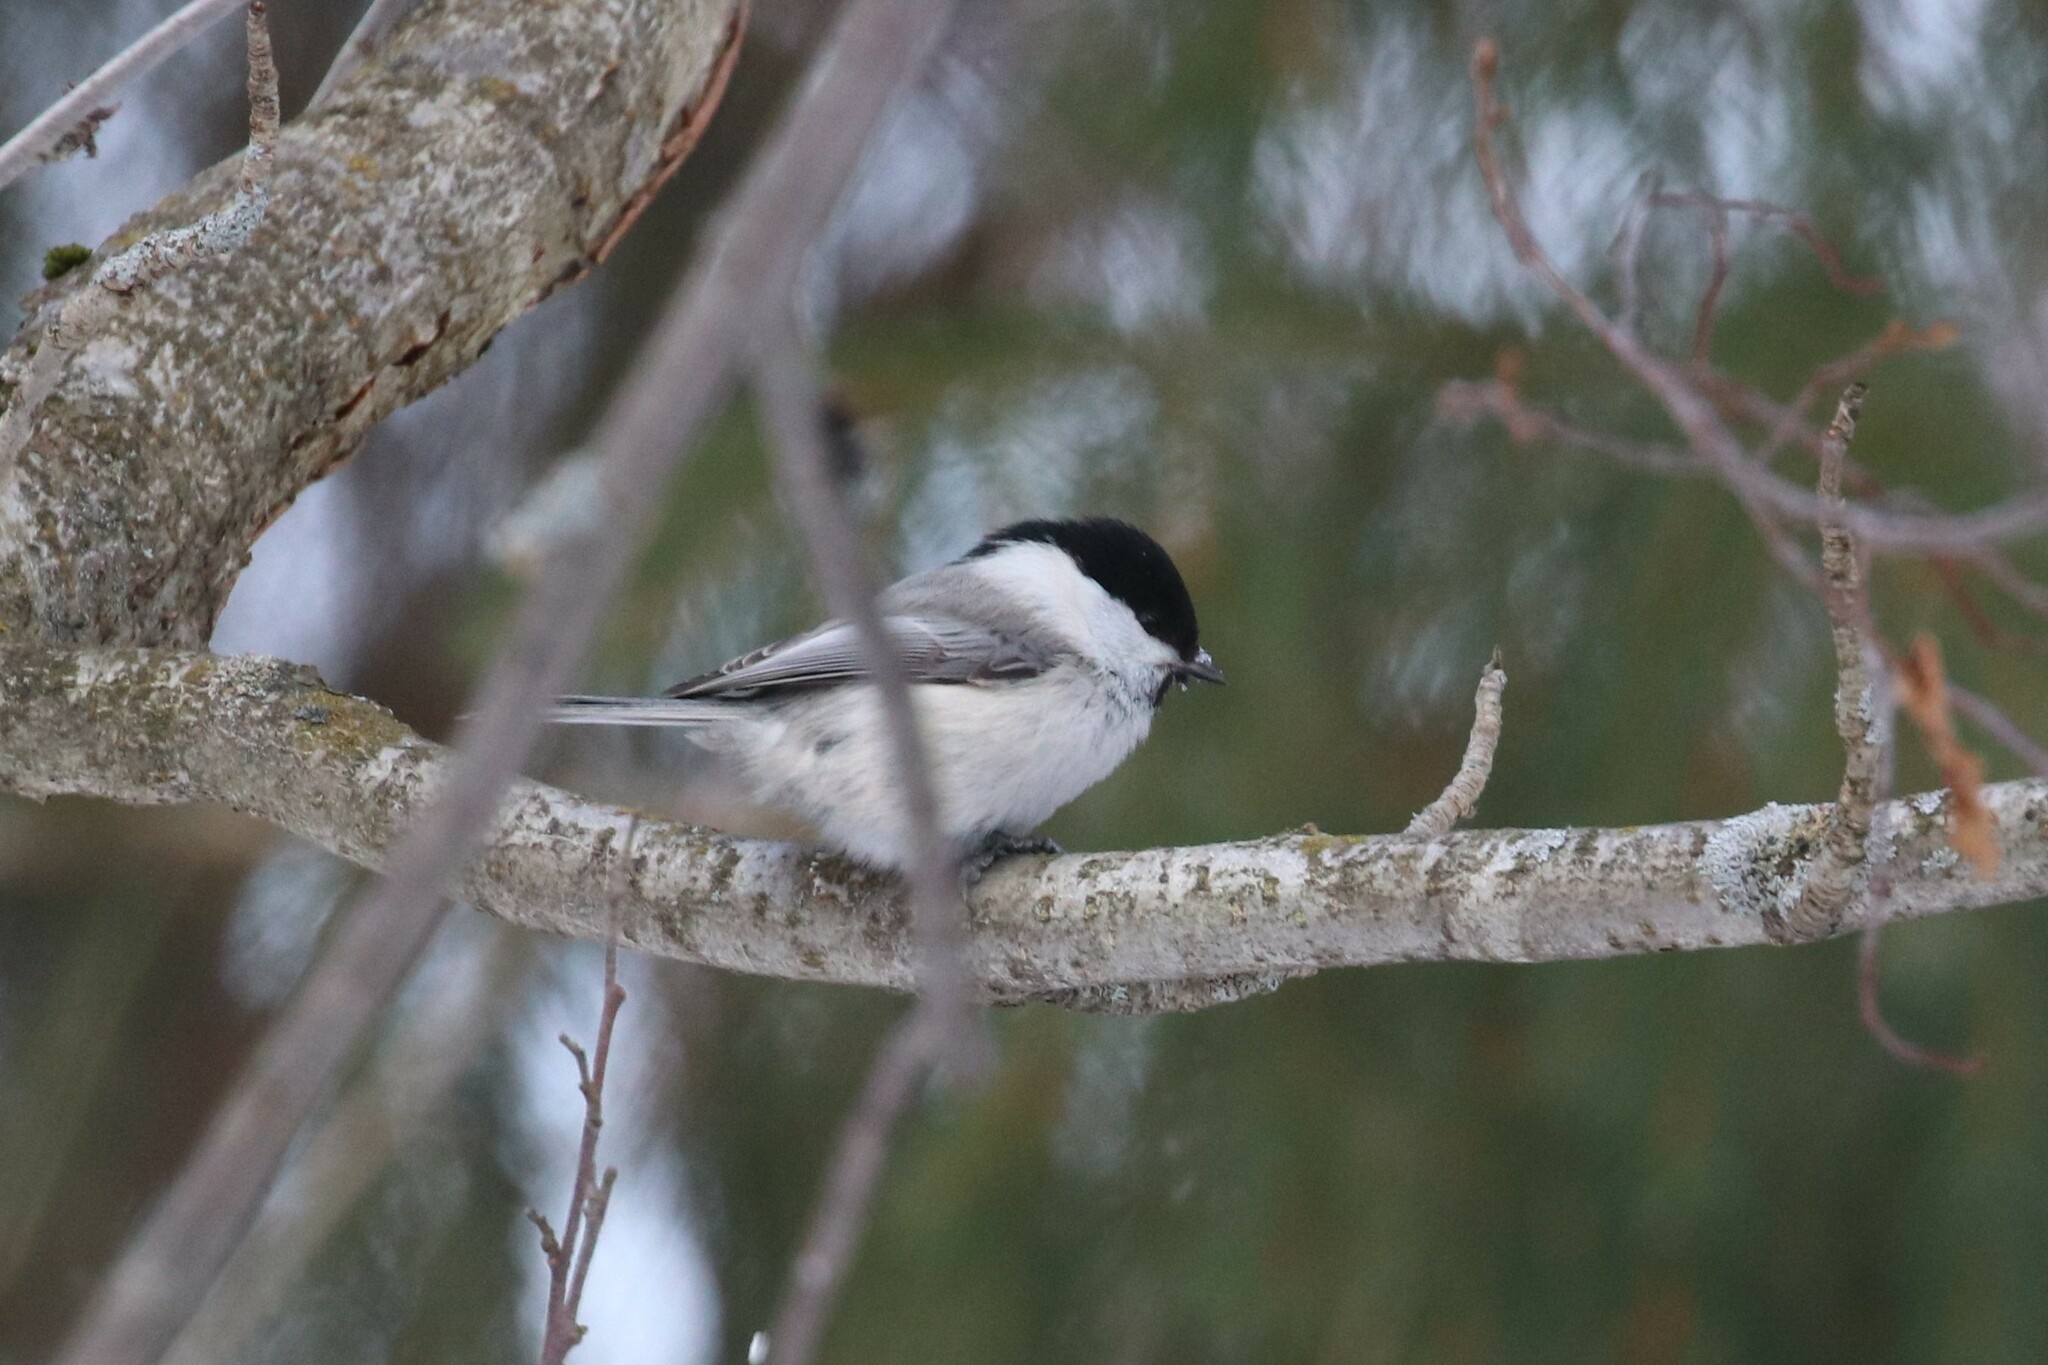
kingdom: Animalia
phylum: Chordata
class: Aves
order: Passeriformes
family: Paridae
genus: Poecile
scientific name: Poecile montanus
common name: Willow tit
